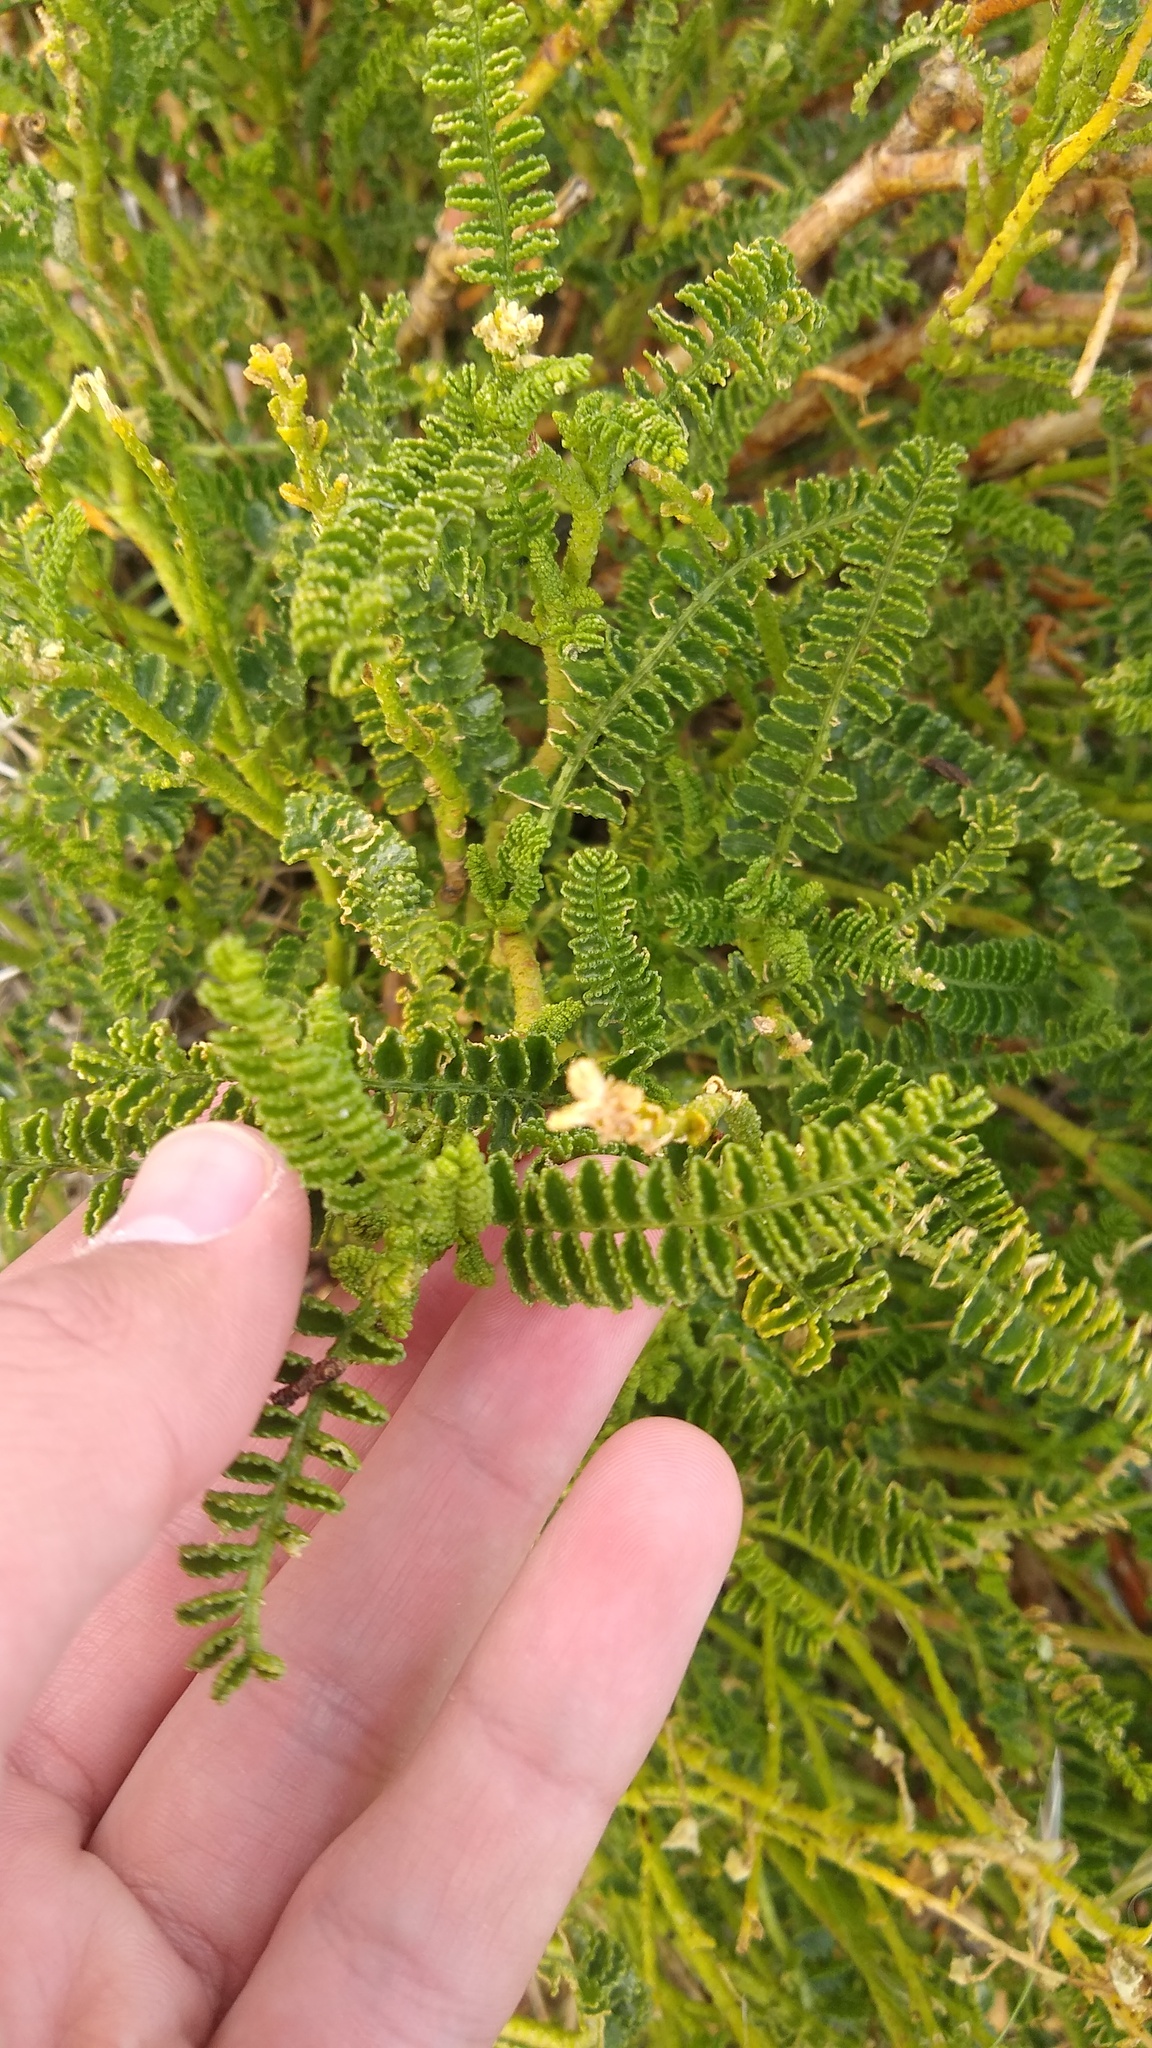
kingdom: Plantae
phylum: Tracheophyta
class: Magnoliopsida
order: Fabales
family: Fabaceae
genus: Adesmia
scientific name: Adesmia boronioides
